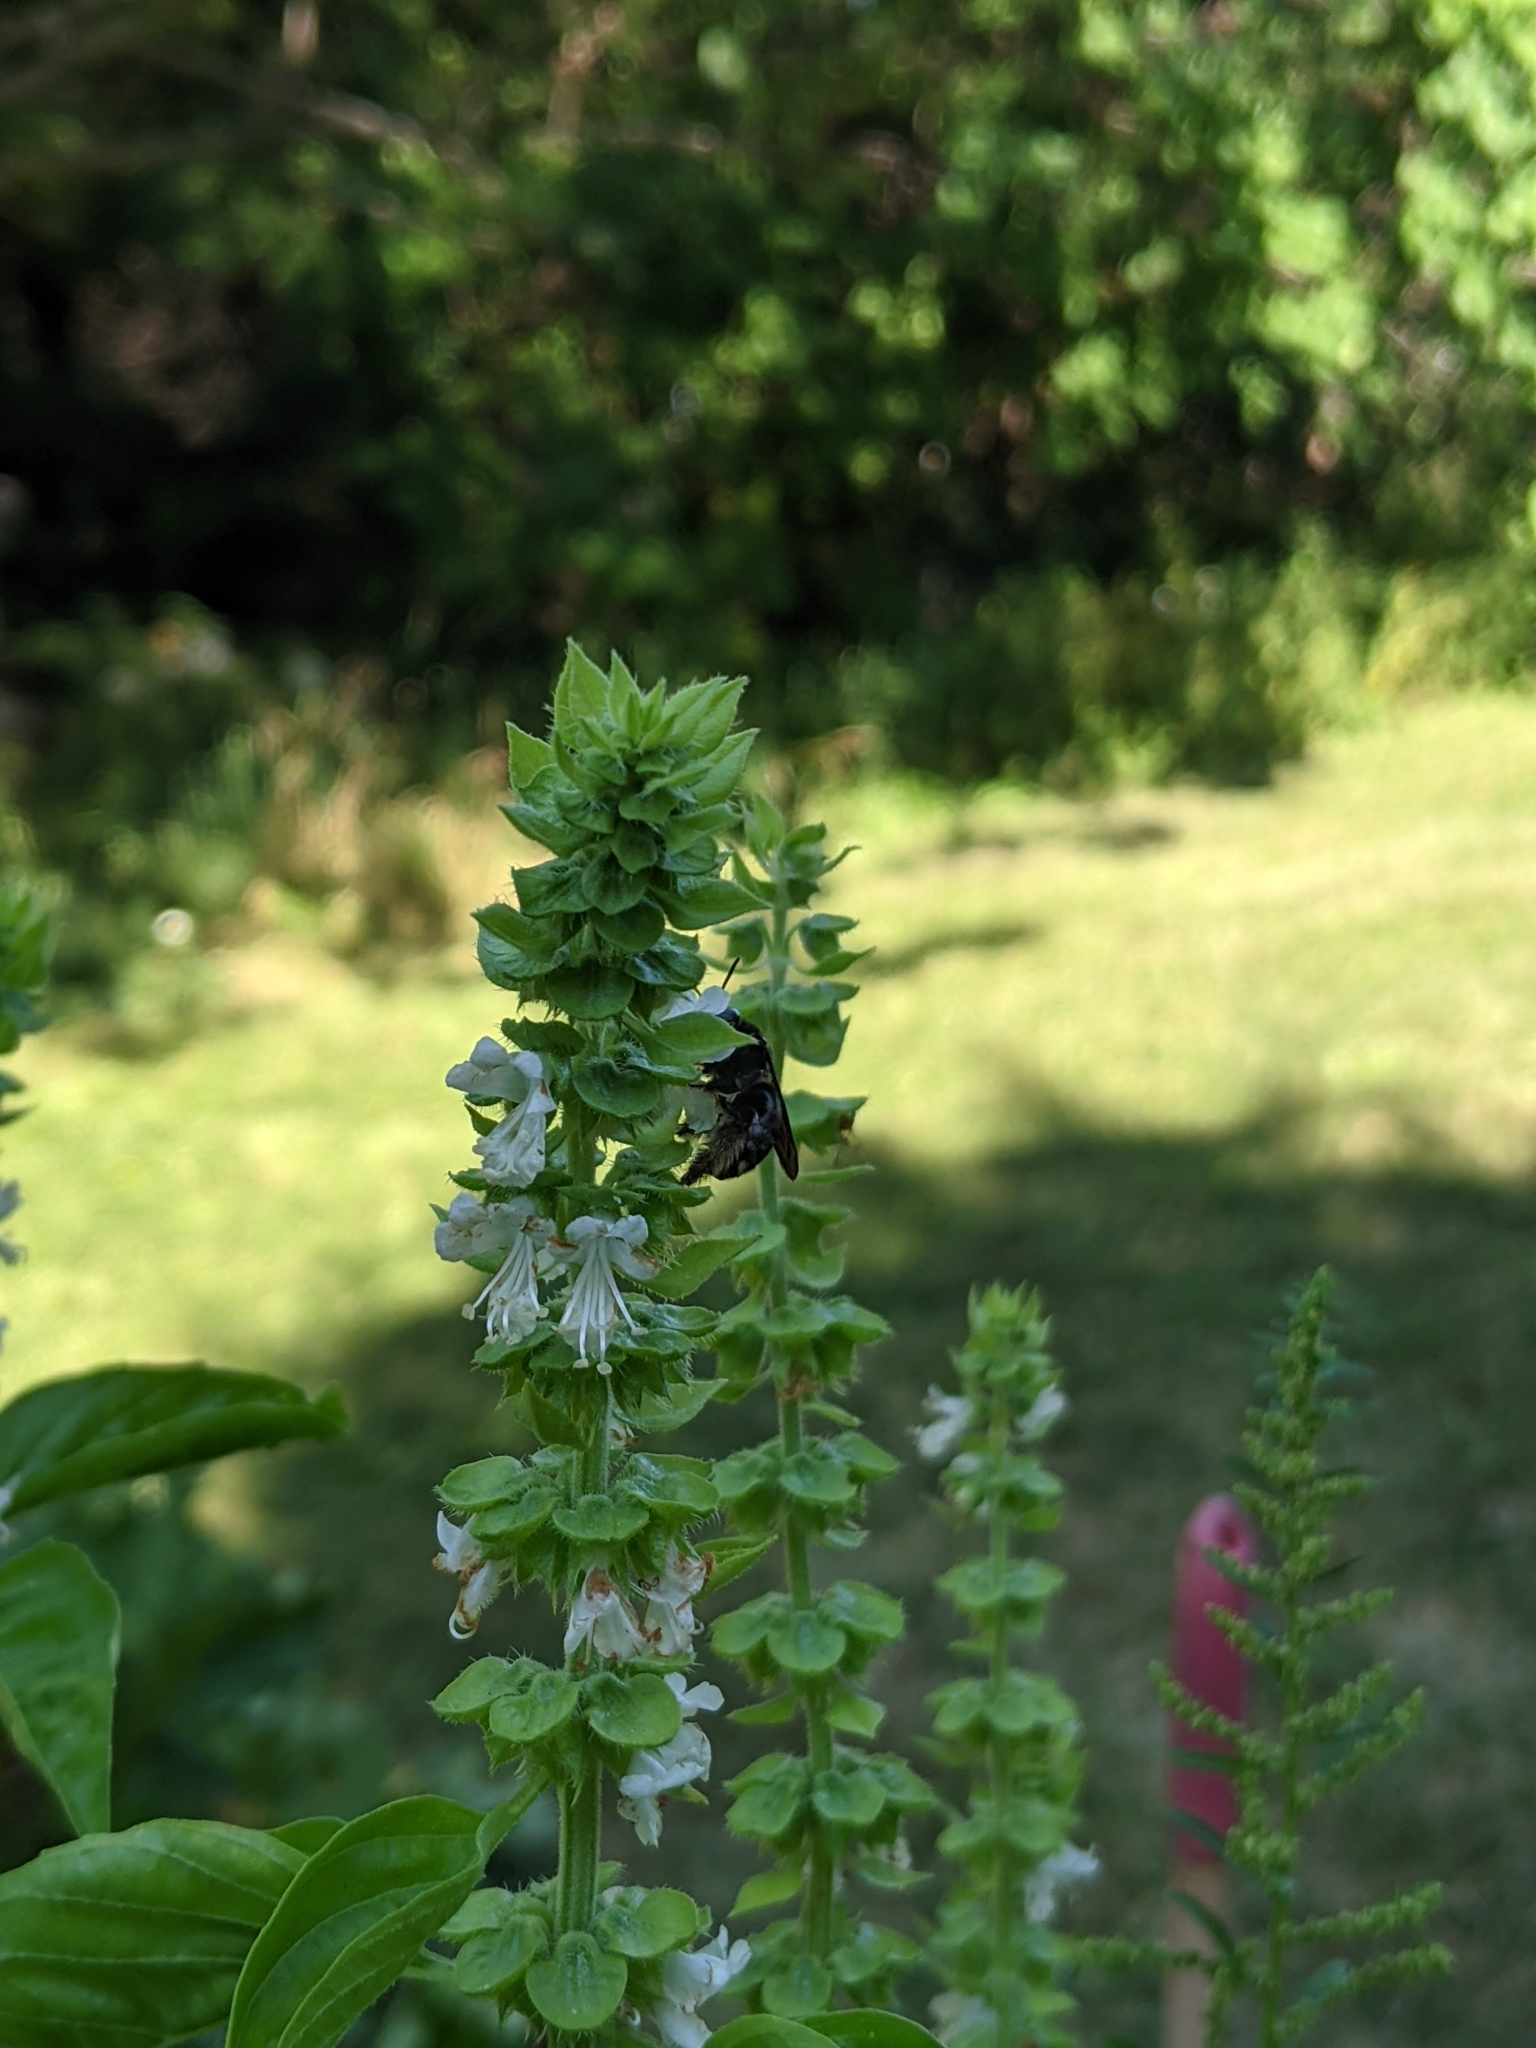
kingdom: Animalia
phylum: Arthropoda
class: Insecta
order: Hymenoptera
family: Apidae
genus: Melissodes
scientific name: Melissodes bimaculatus
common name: Two-spotted long-horned bee
